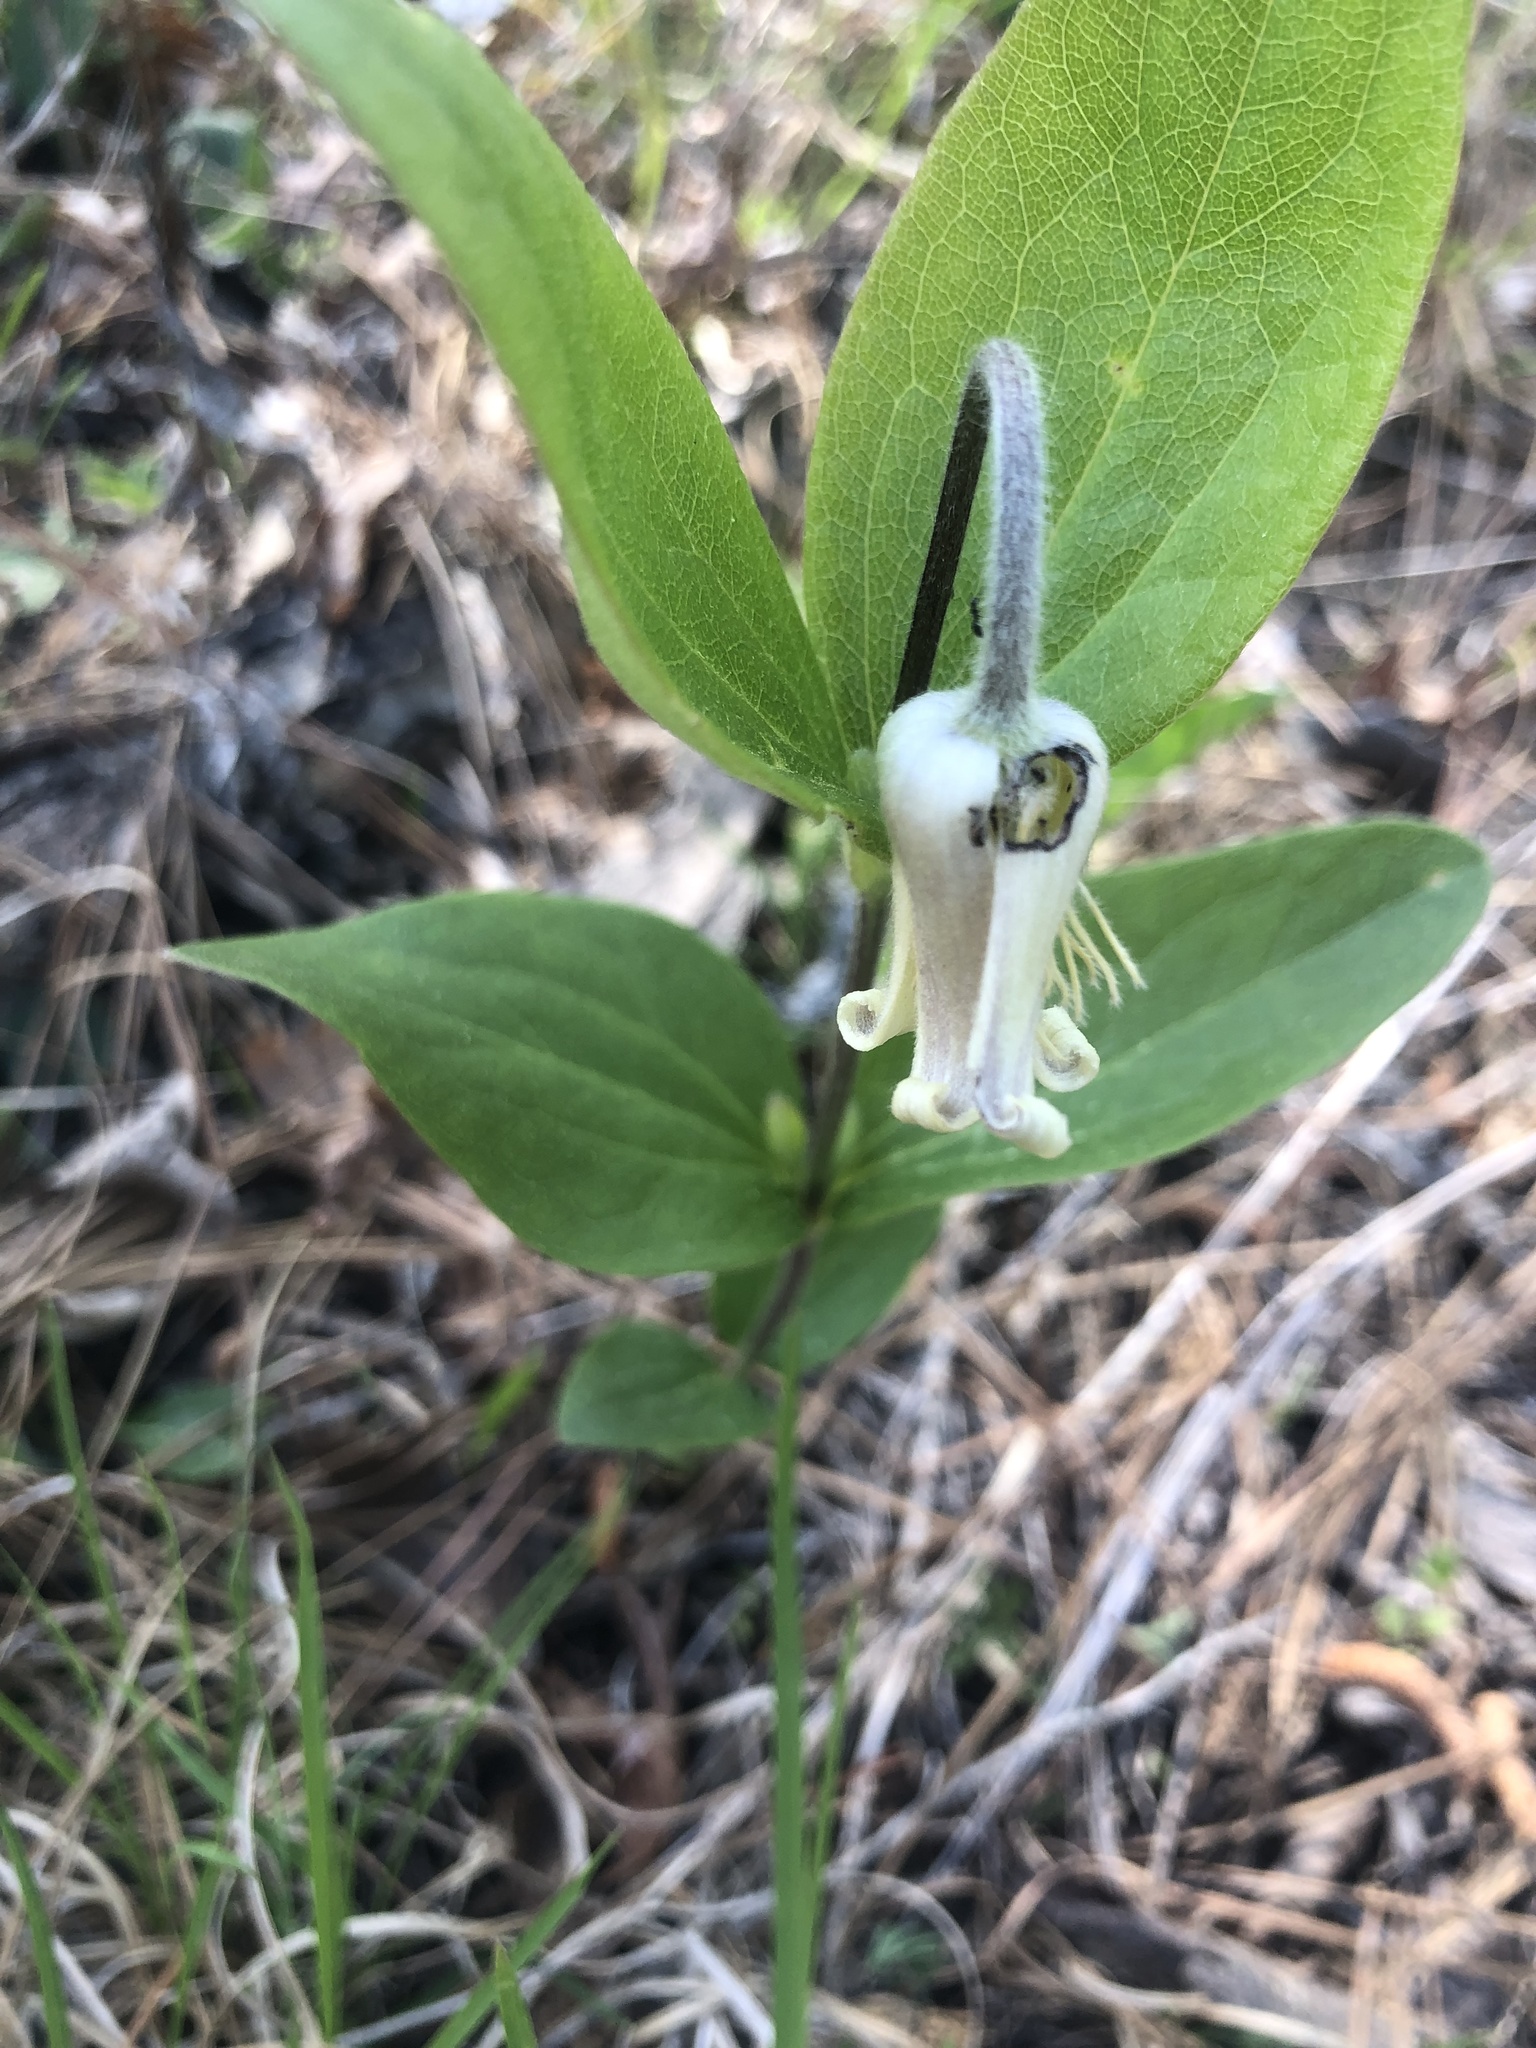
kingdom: Plantae
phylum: Tracheophyta
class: Magnoliopsida
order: Ranunculales
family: Ranunculaceae
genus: Clematis
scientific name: Clematis ochroleuca
